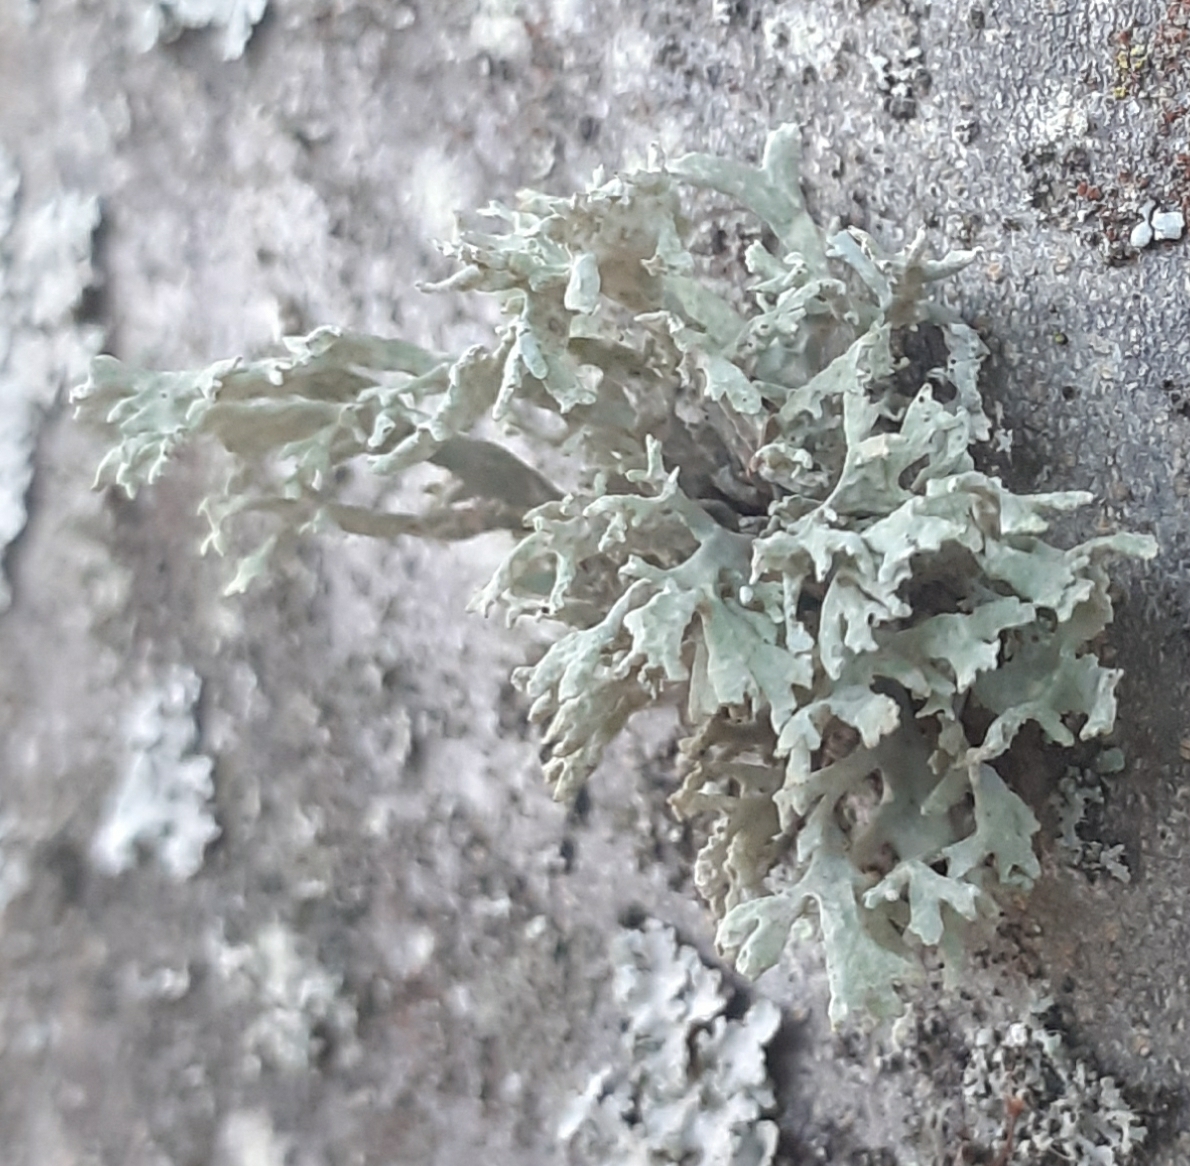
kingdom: Fungi
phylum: Ascomycota
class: Lecanoromycetes
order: Lecanorales
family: Parmeliaceae
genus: Evernia
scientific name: Evernia prunastri
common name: Oak moss
